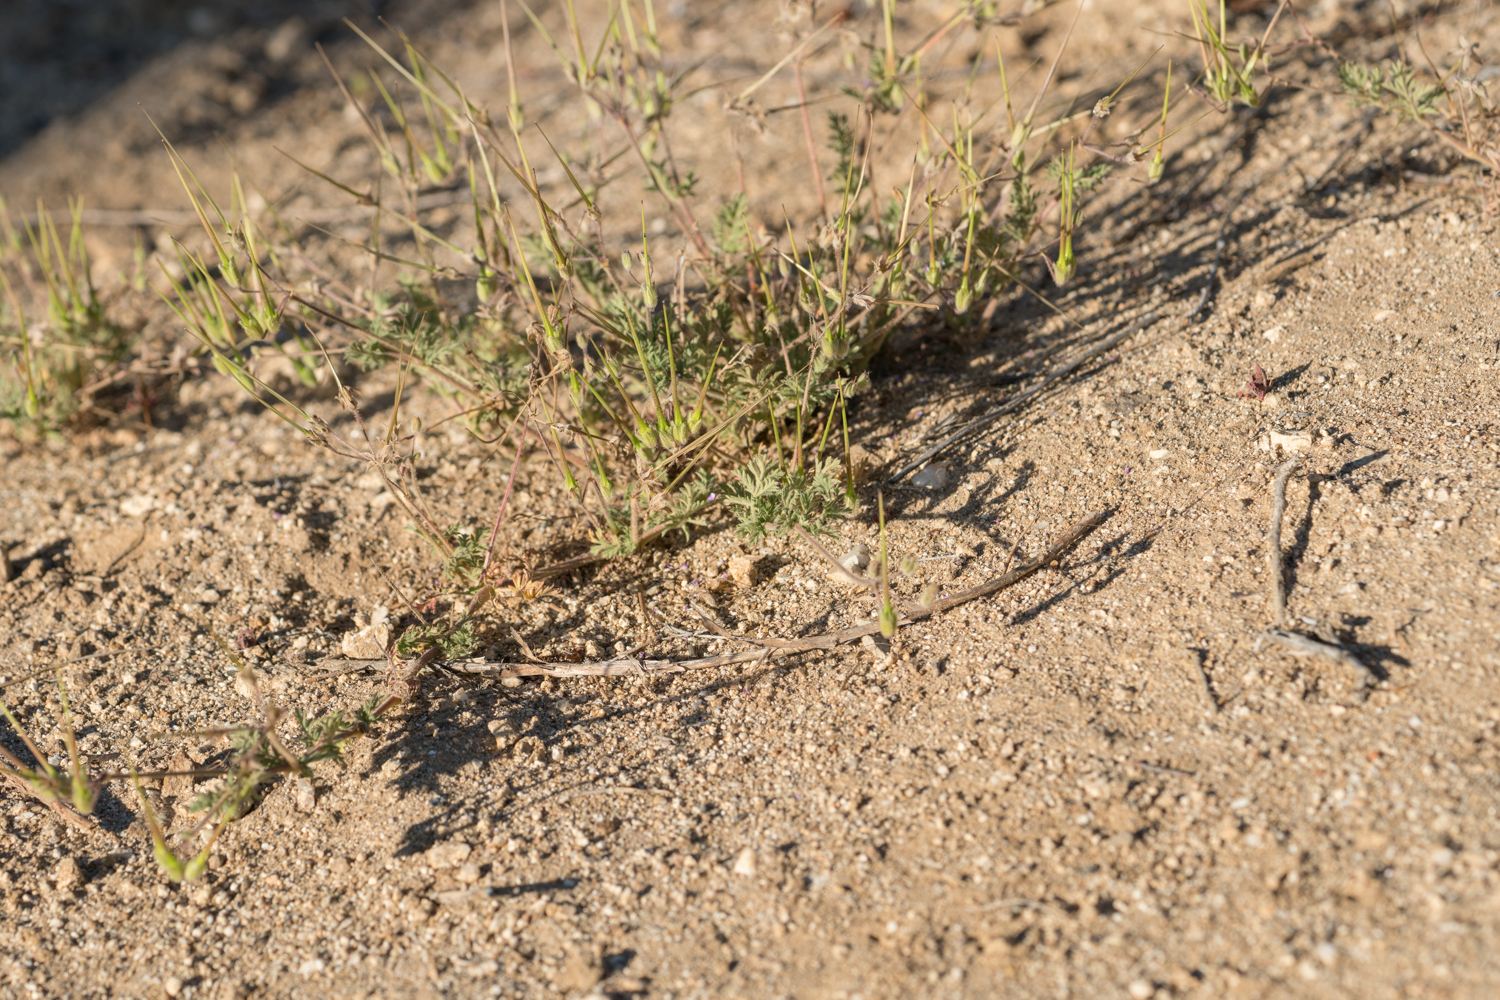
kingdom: Plantae
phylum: Tracheophyta
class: Magnoliopsida
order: Geraniales
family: Geraniaceae
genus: Erodium
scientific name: Erodium cicutarium
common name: Common stork's-bill
